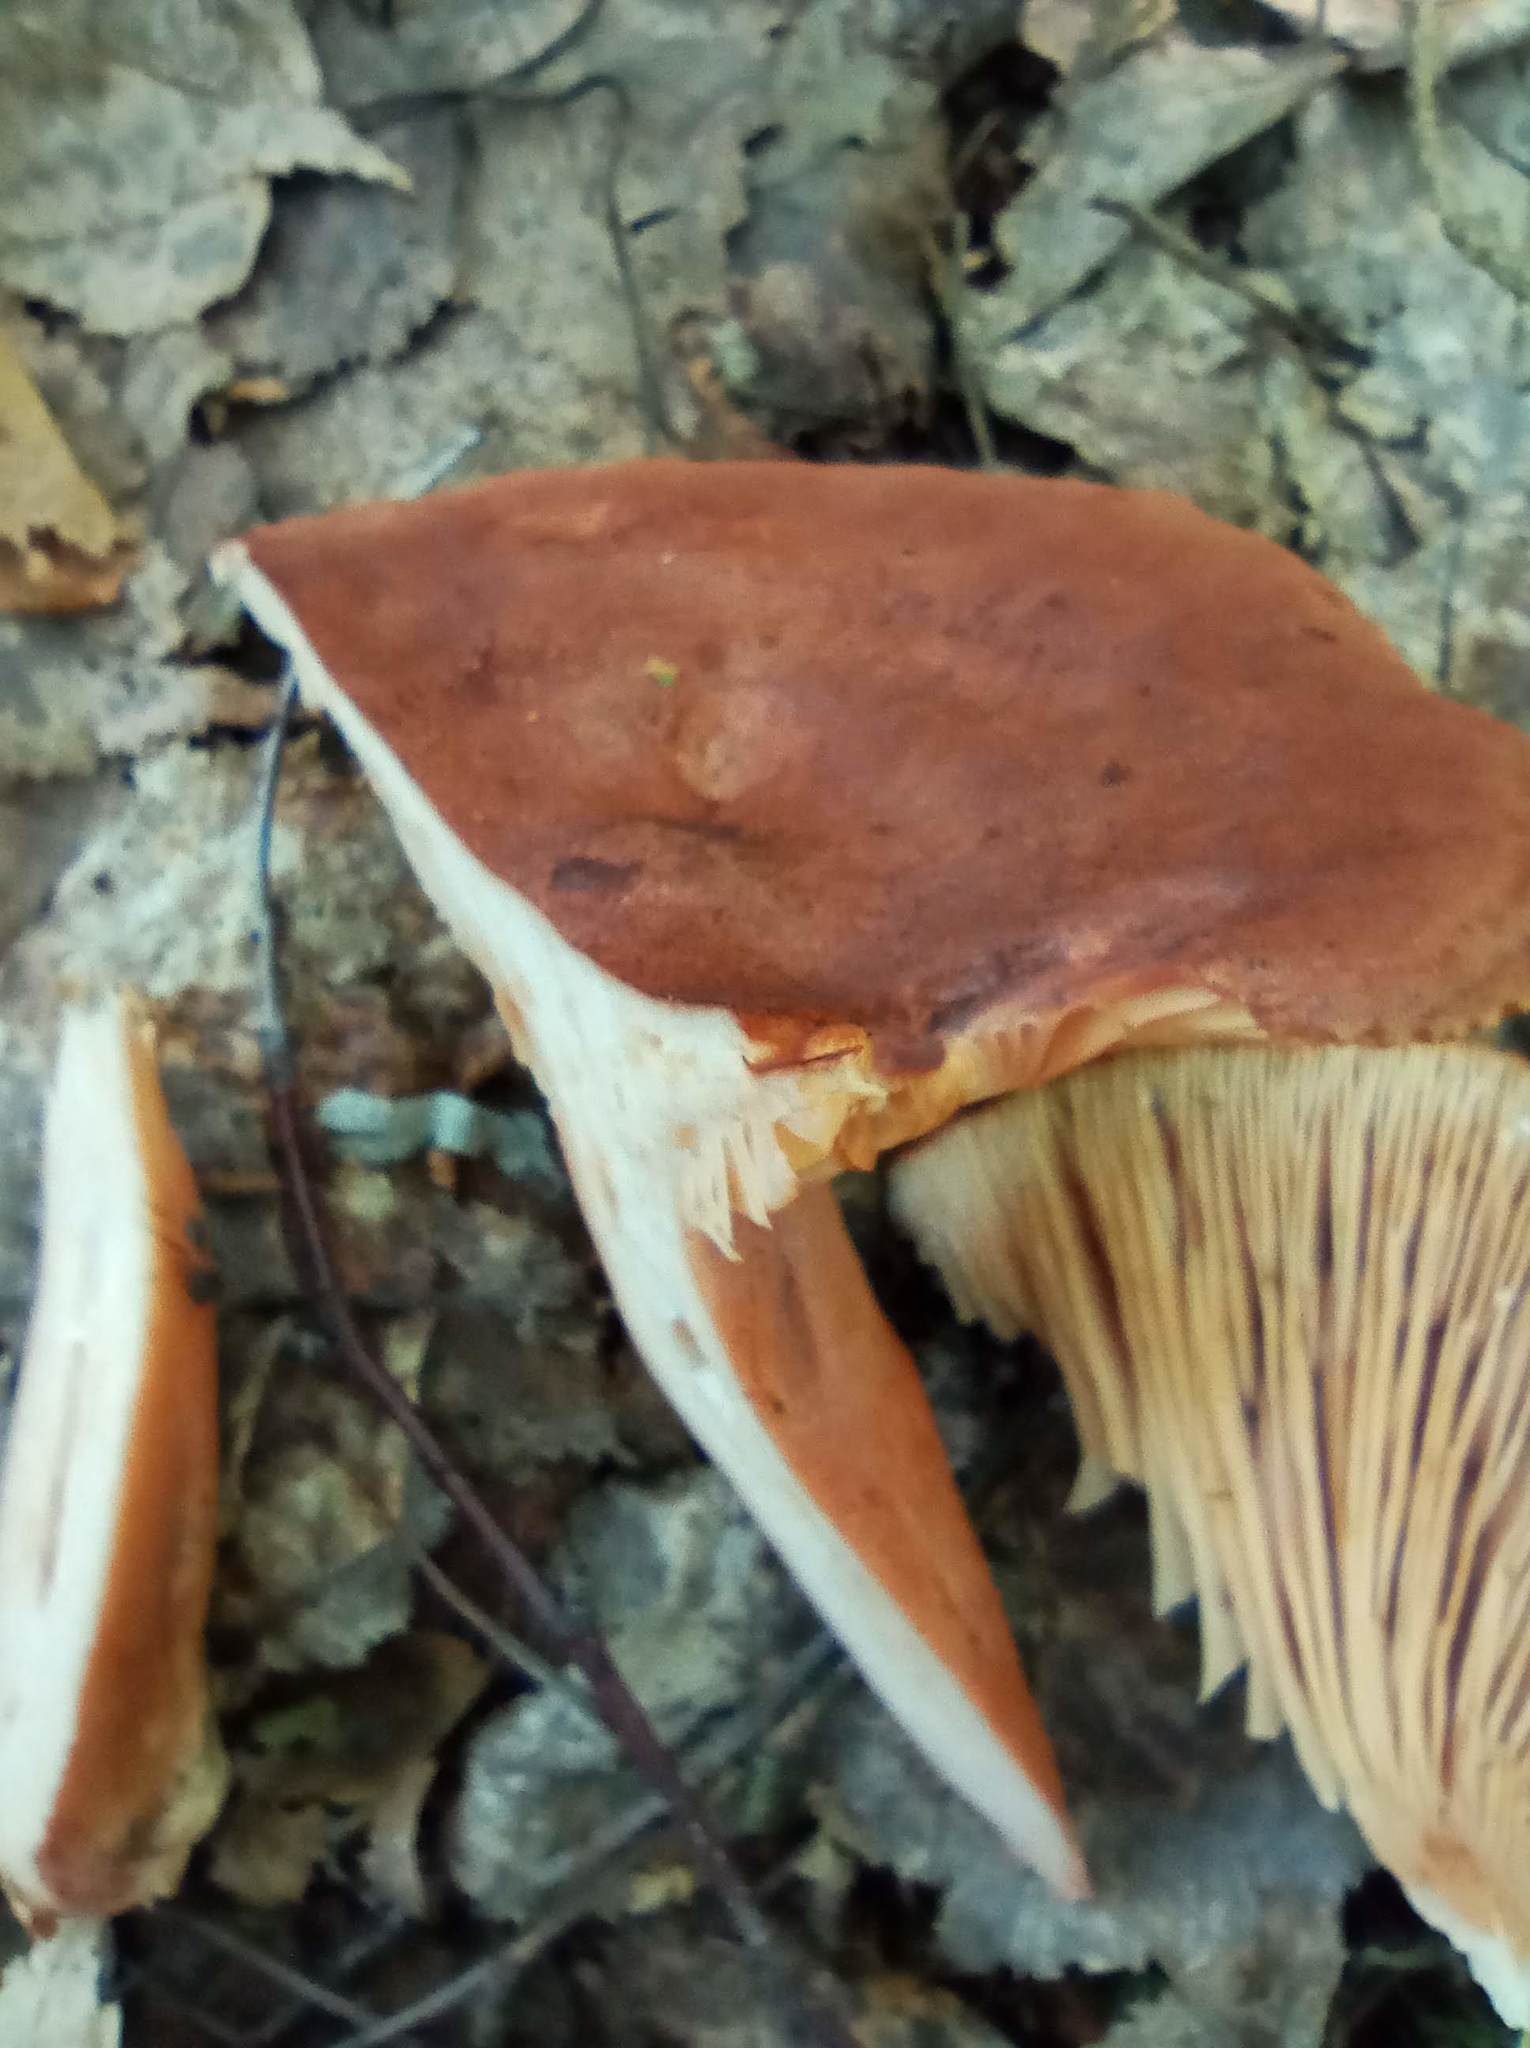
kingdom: Fungi
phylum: Basidiomycota
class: Agaricomycetes
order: Russulales
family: Russulaceae
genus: Lactarius
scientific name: Lactarius rufus
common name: Rufous milk-cap
